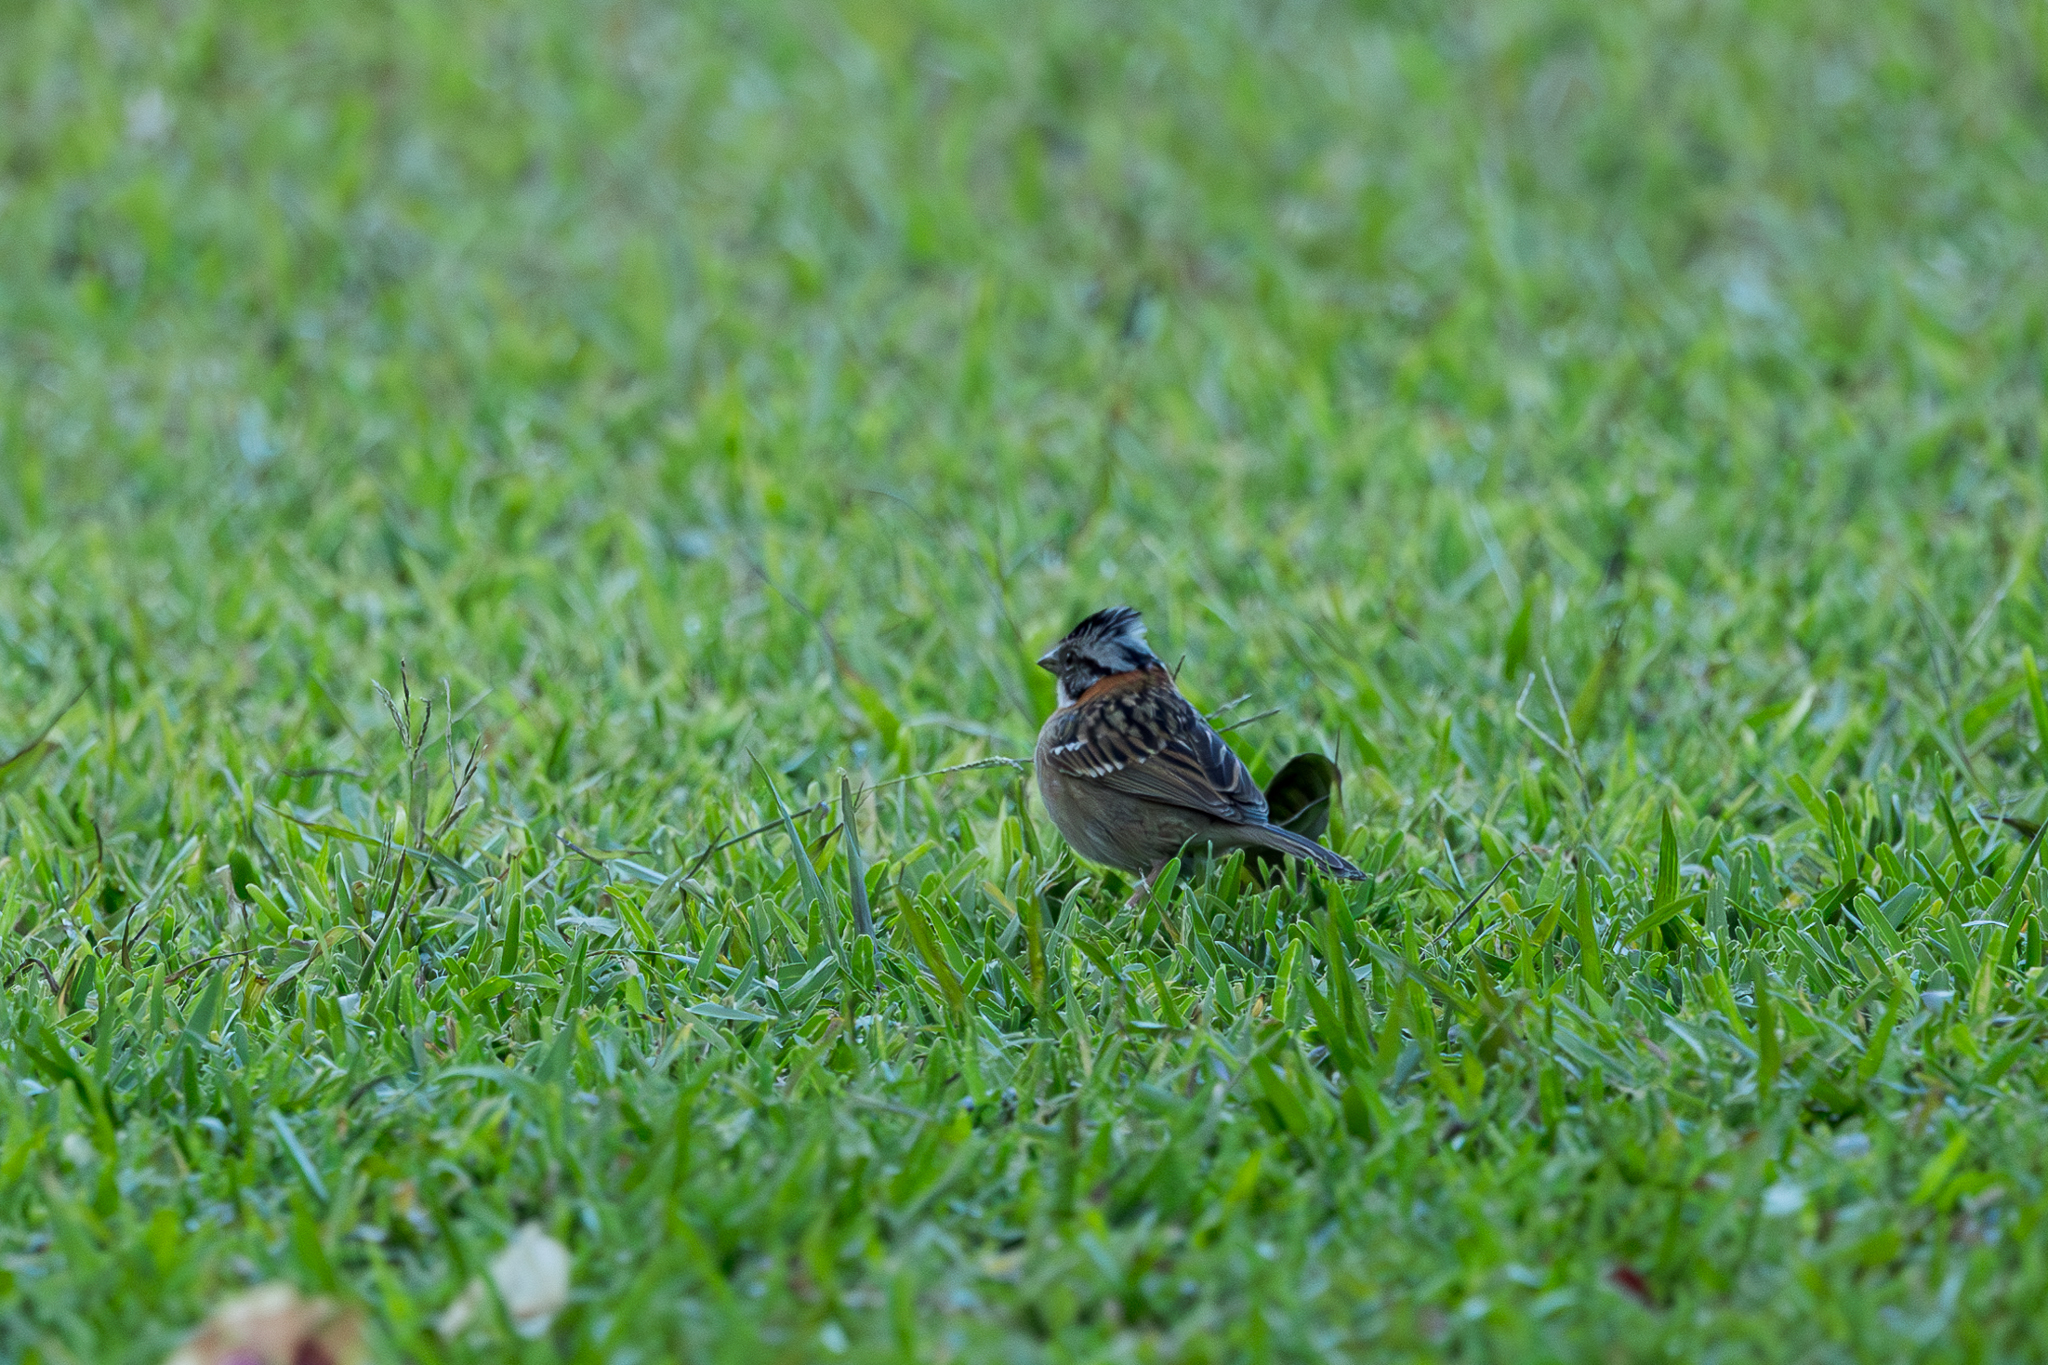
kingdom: Animalia
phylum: Chordata
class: Aves
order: Passeriformes
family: Passerellidae
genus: Zonotrichia
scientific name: Zonotrichia capensis
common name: Rufous-collared sparrow
